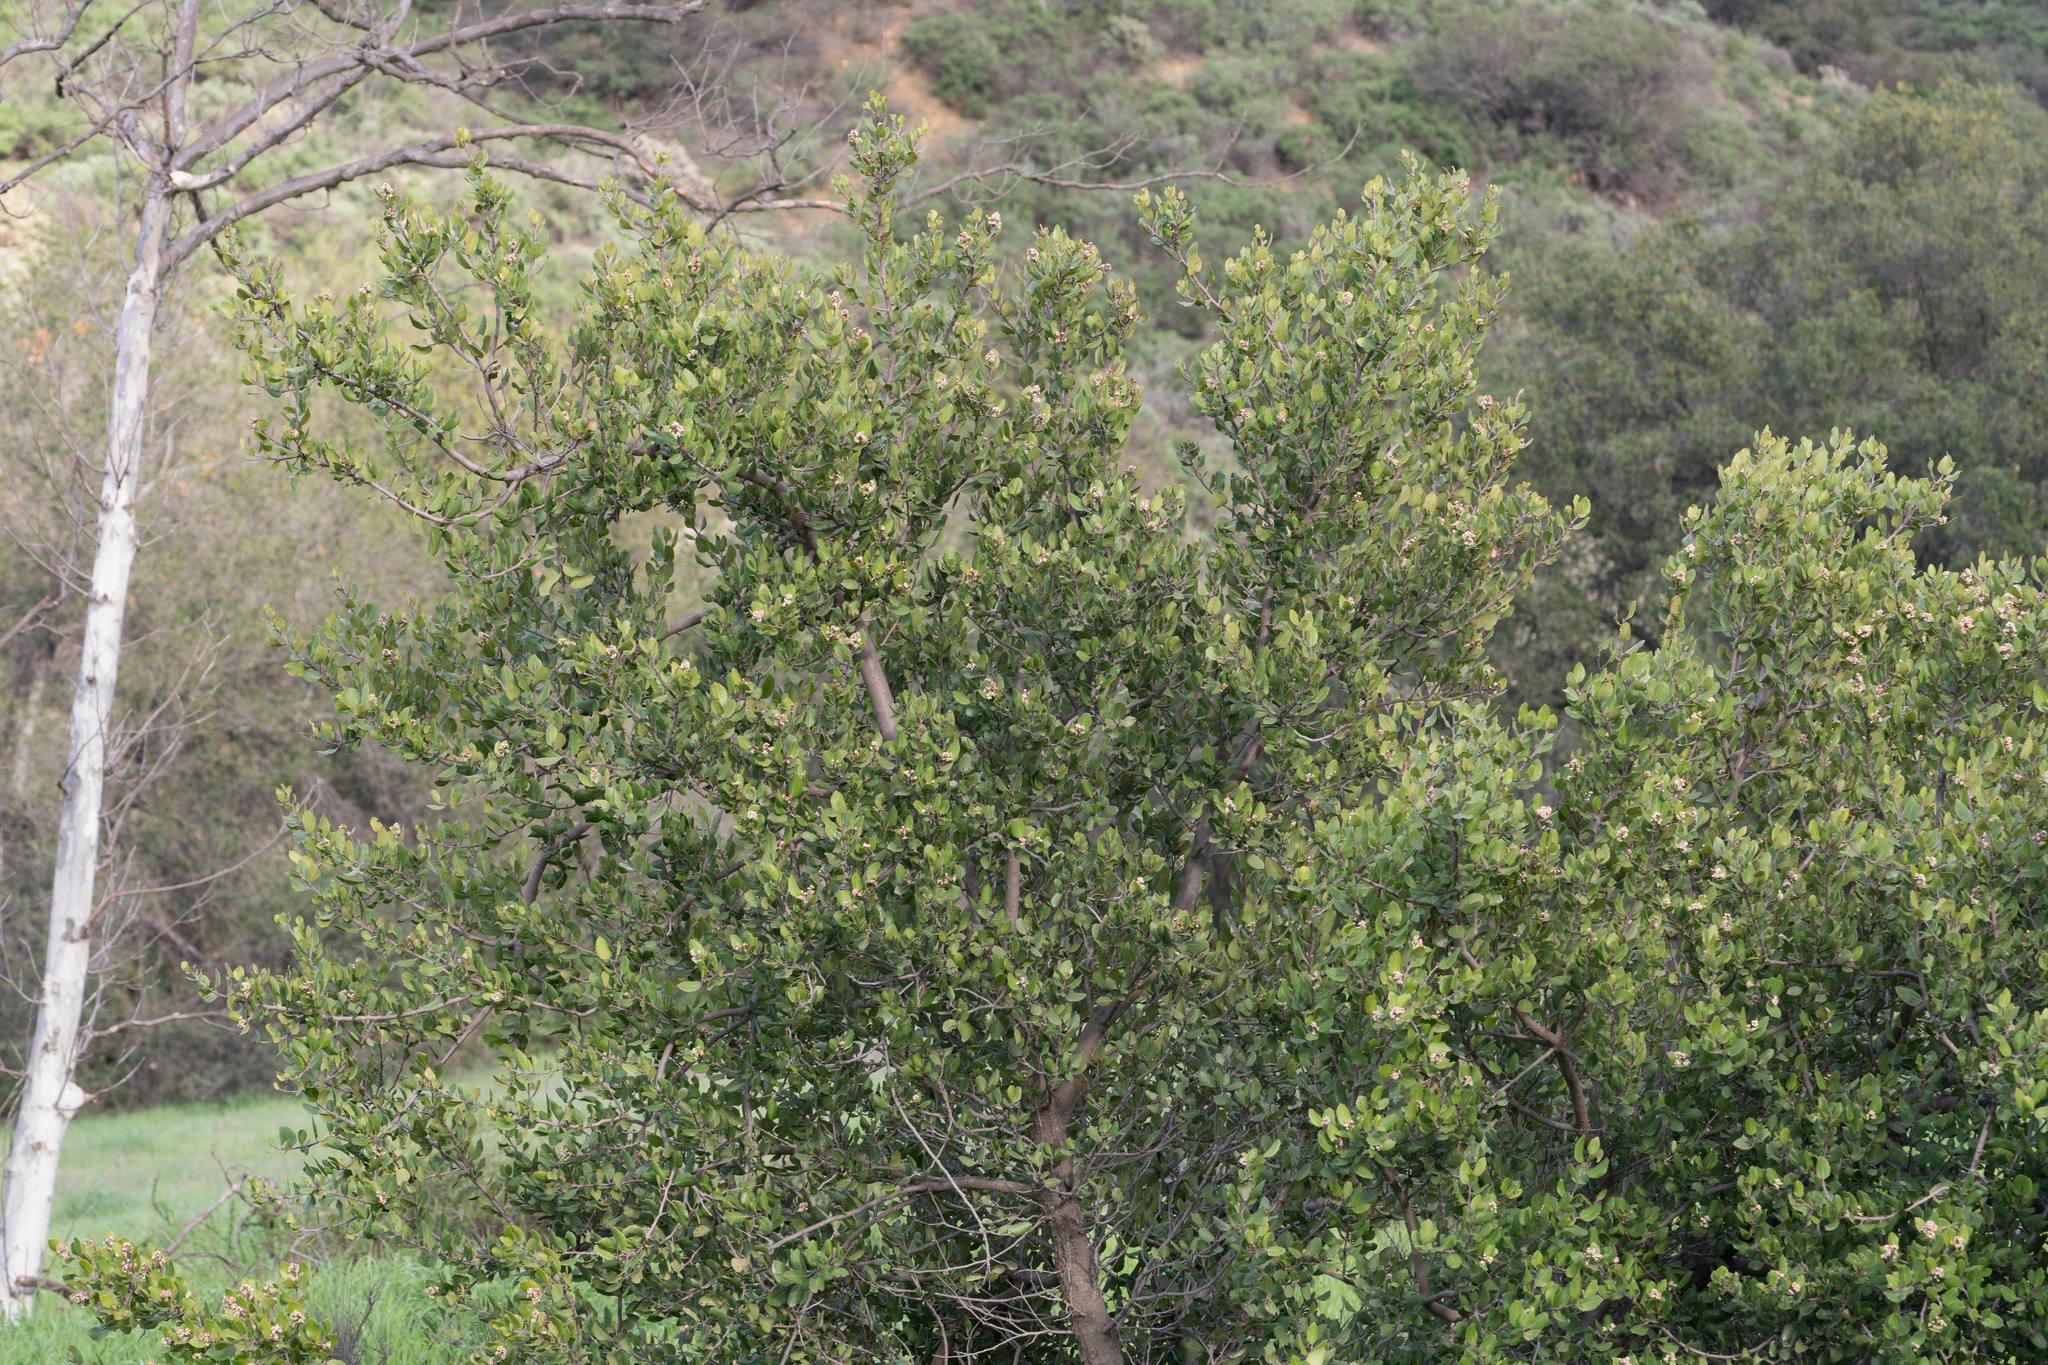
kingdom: Plantae
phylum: Tracheophyta
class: Magnoliopsida
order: Sapindales
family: Anacardiaceae
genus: Rhus
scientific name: Rhus integrifolia
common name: Lemonade sumac
